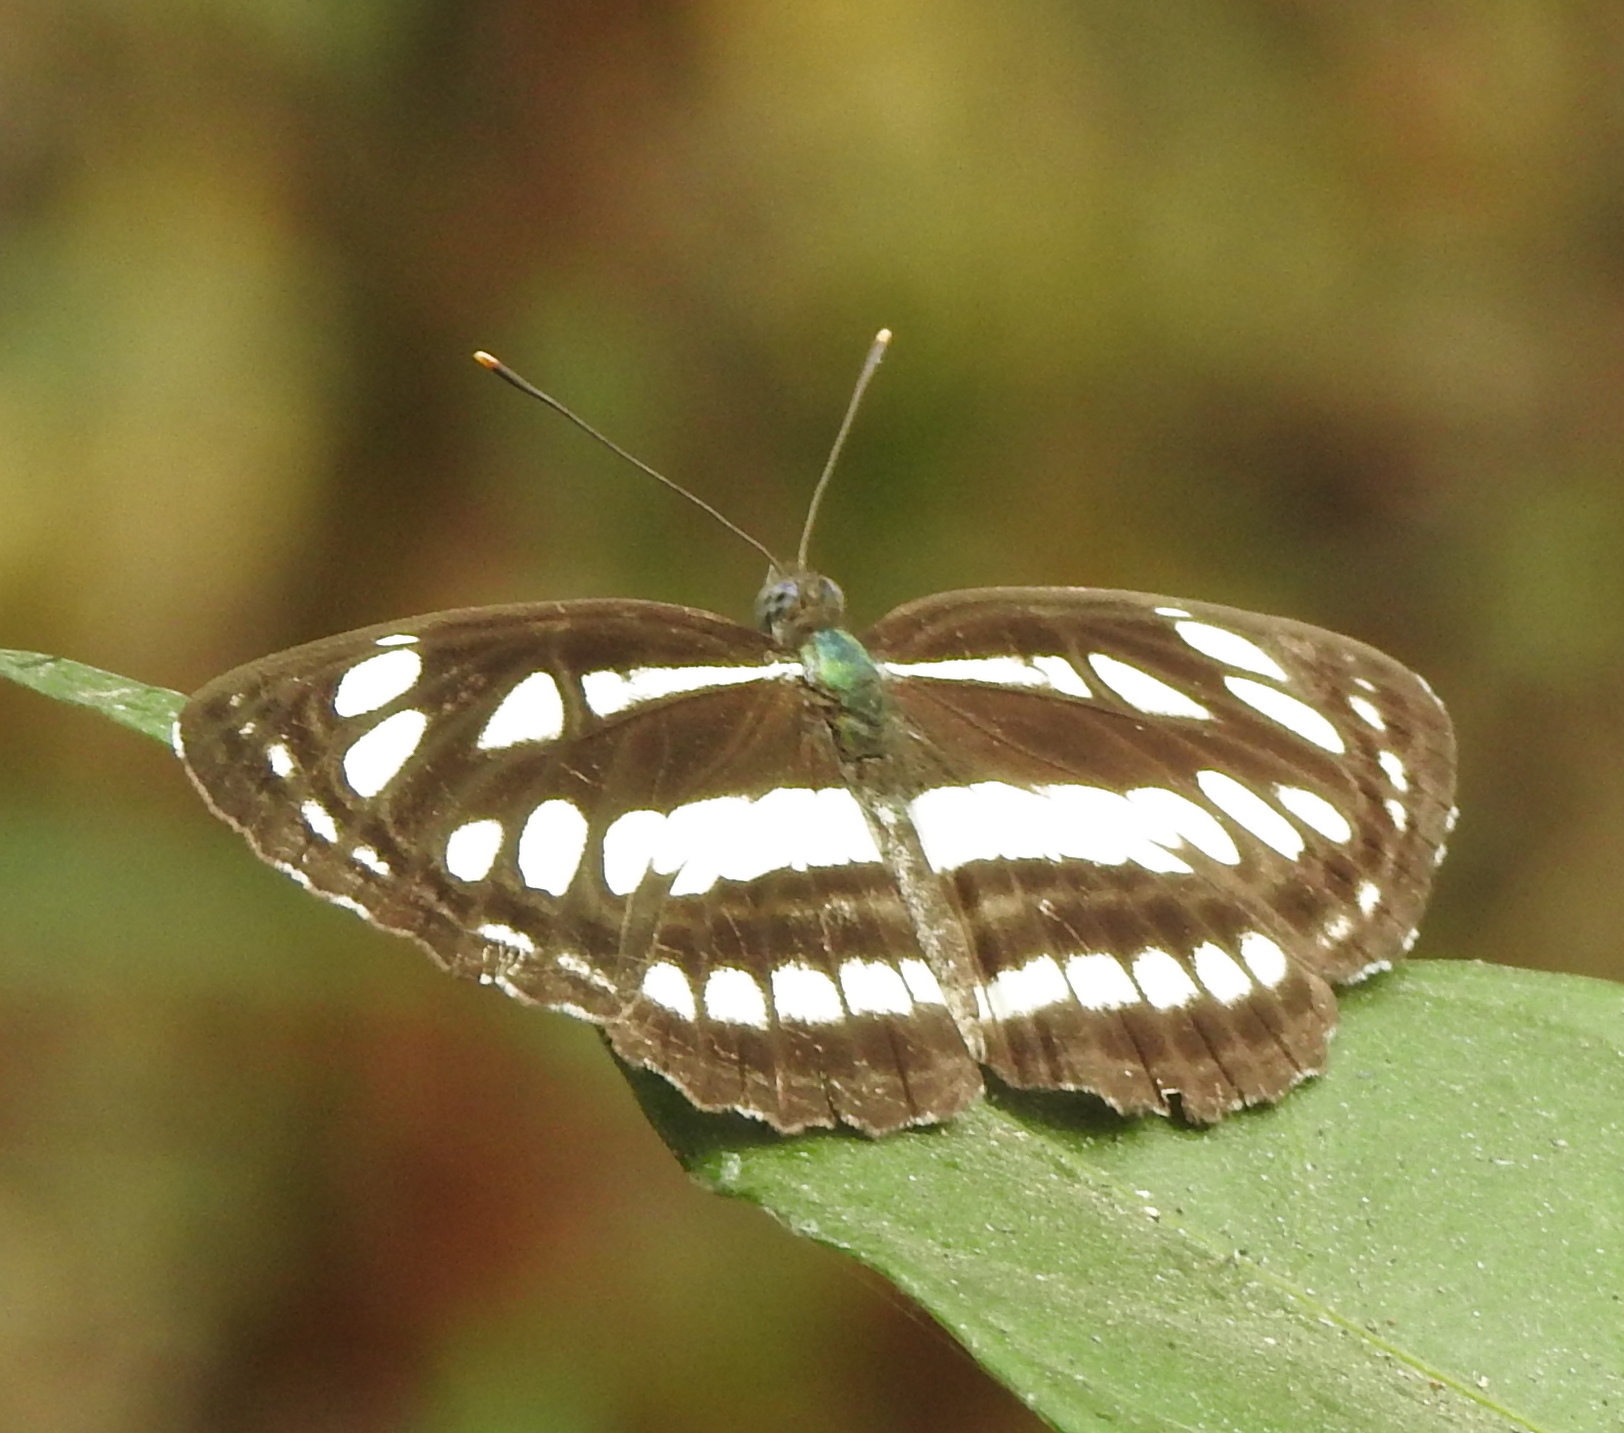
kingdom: Animalia
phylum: Arthropoda
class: Insecta
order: Lepidoptera
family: Nymphalidae
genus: Neptis
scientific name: Neptis hylas
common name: Common sailer
